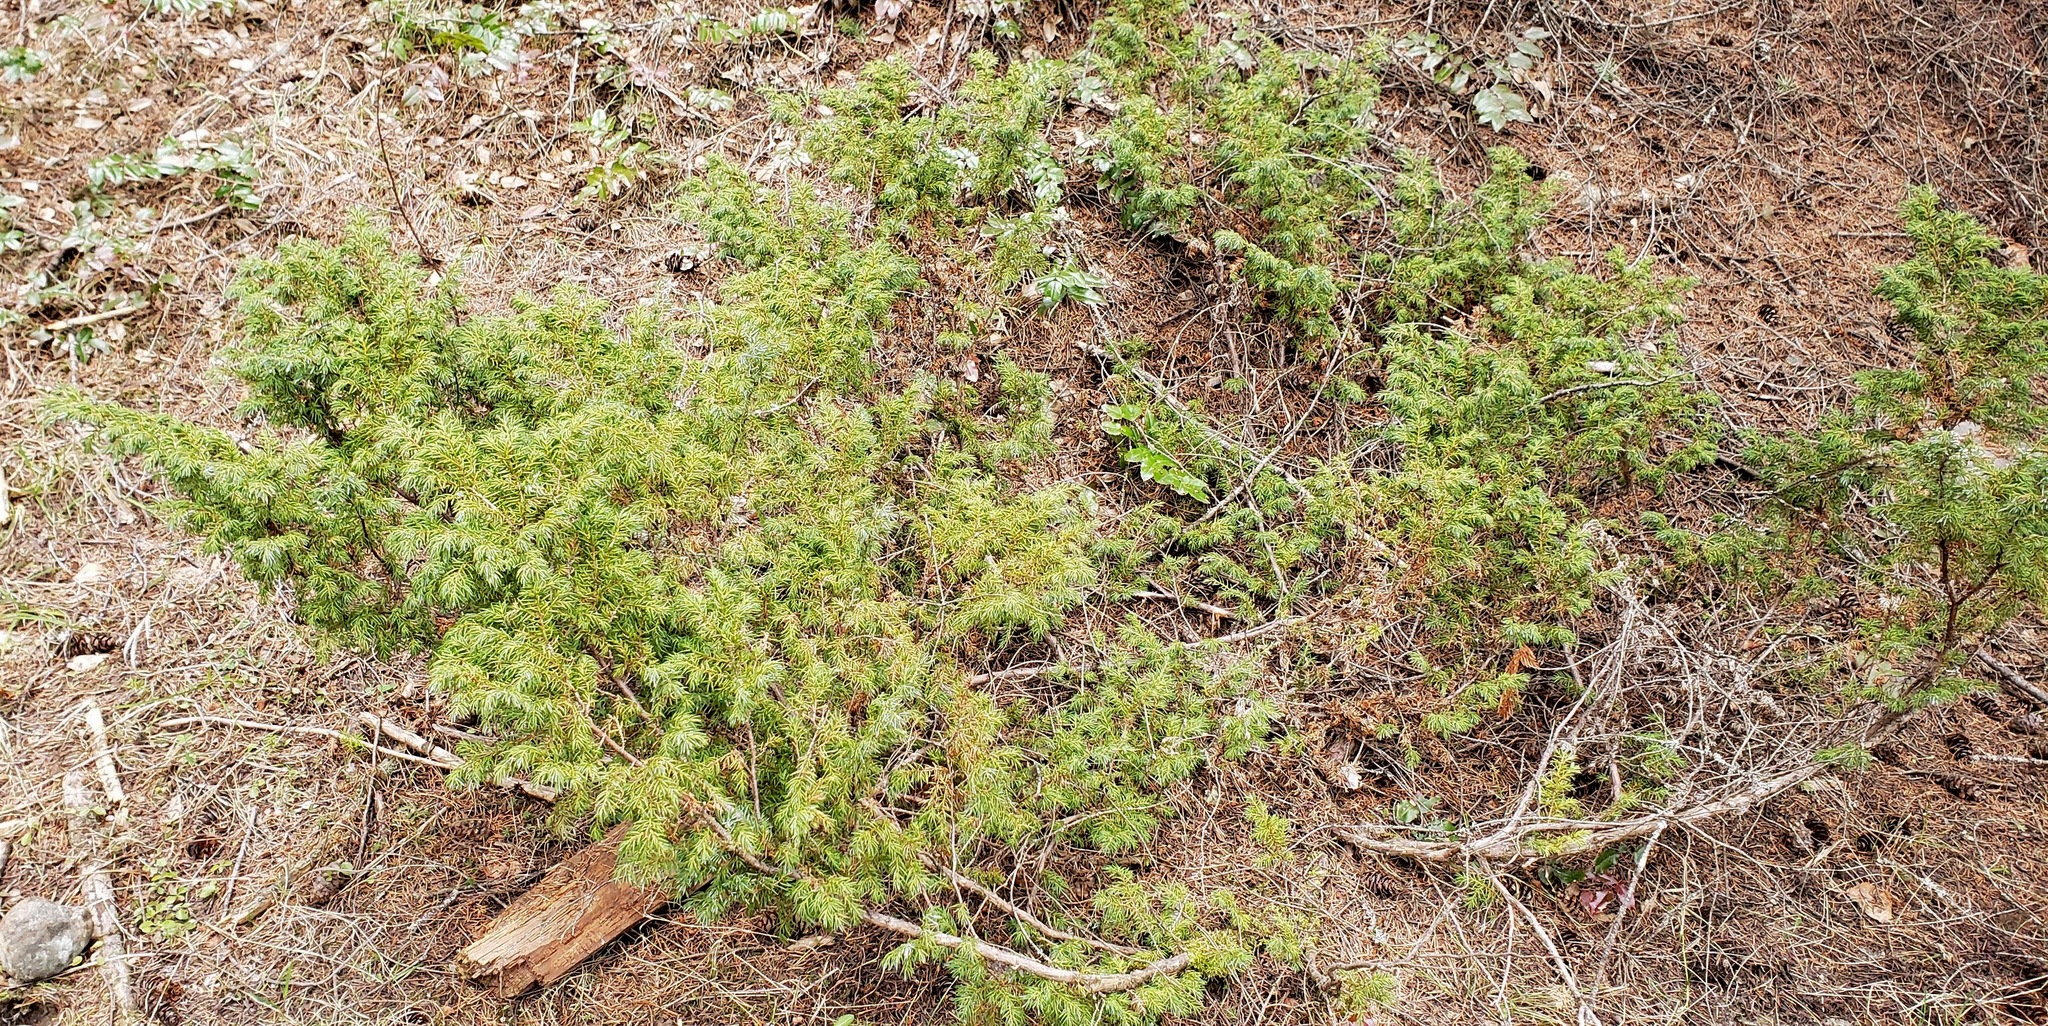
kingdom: Plantae
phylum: Tracheophyta
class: Pinopsida
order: Pinales
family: Cupressaceae
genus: Juniperus
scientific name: Juniperus communis
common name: Common juniper
